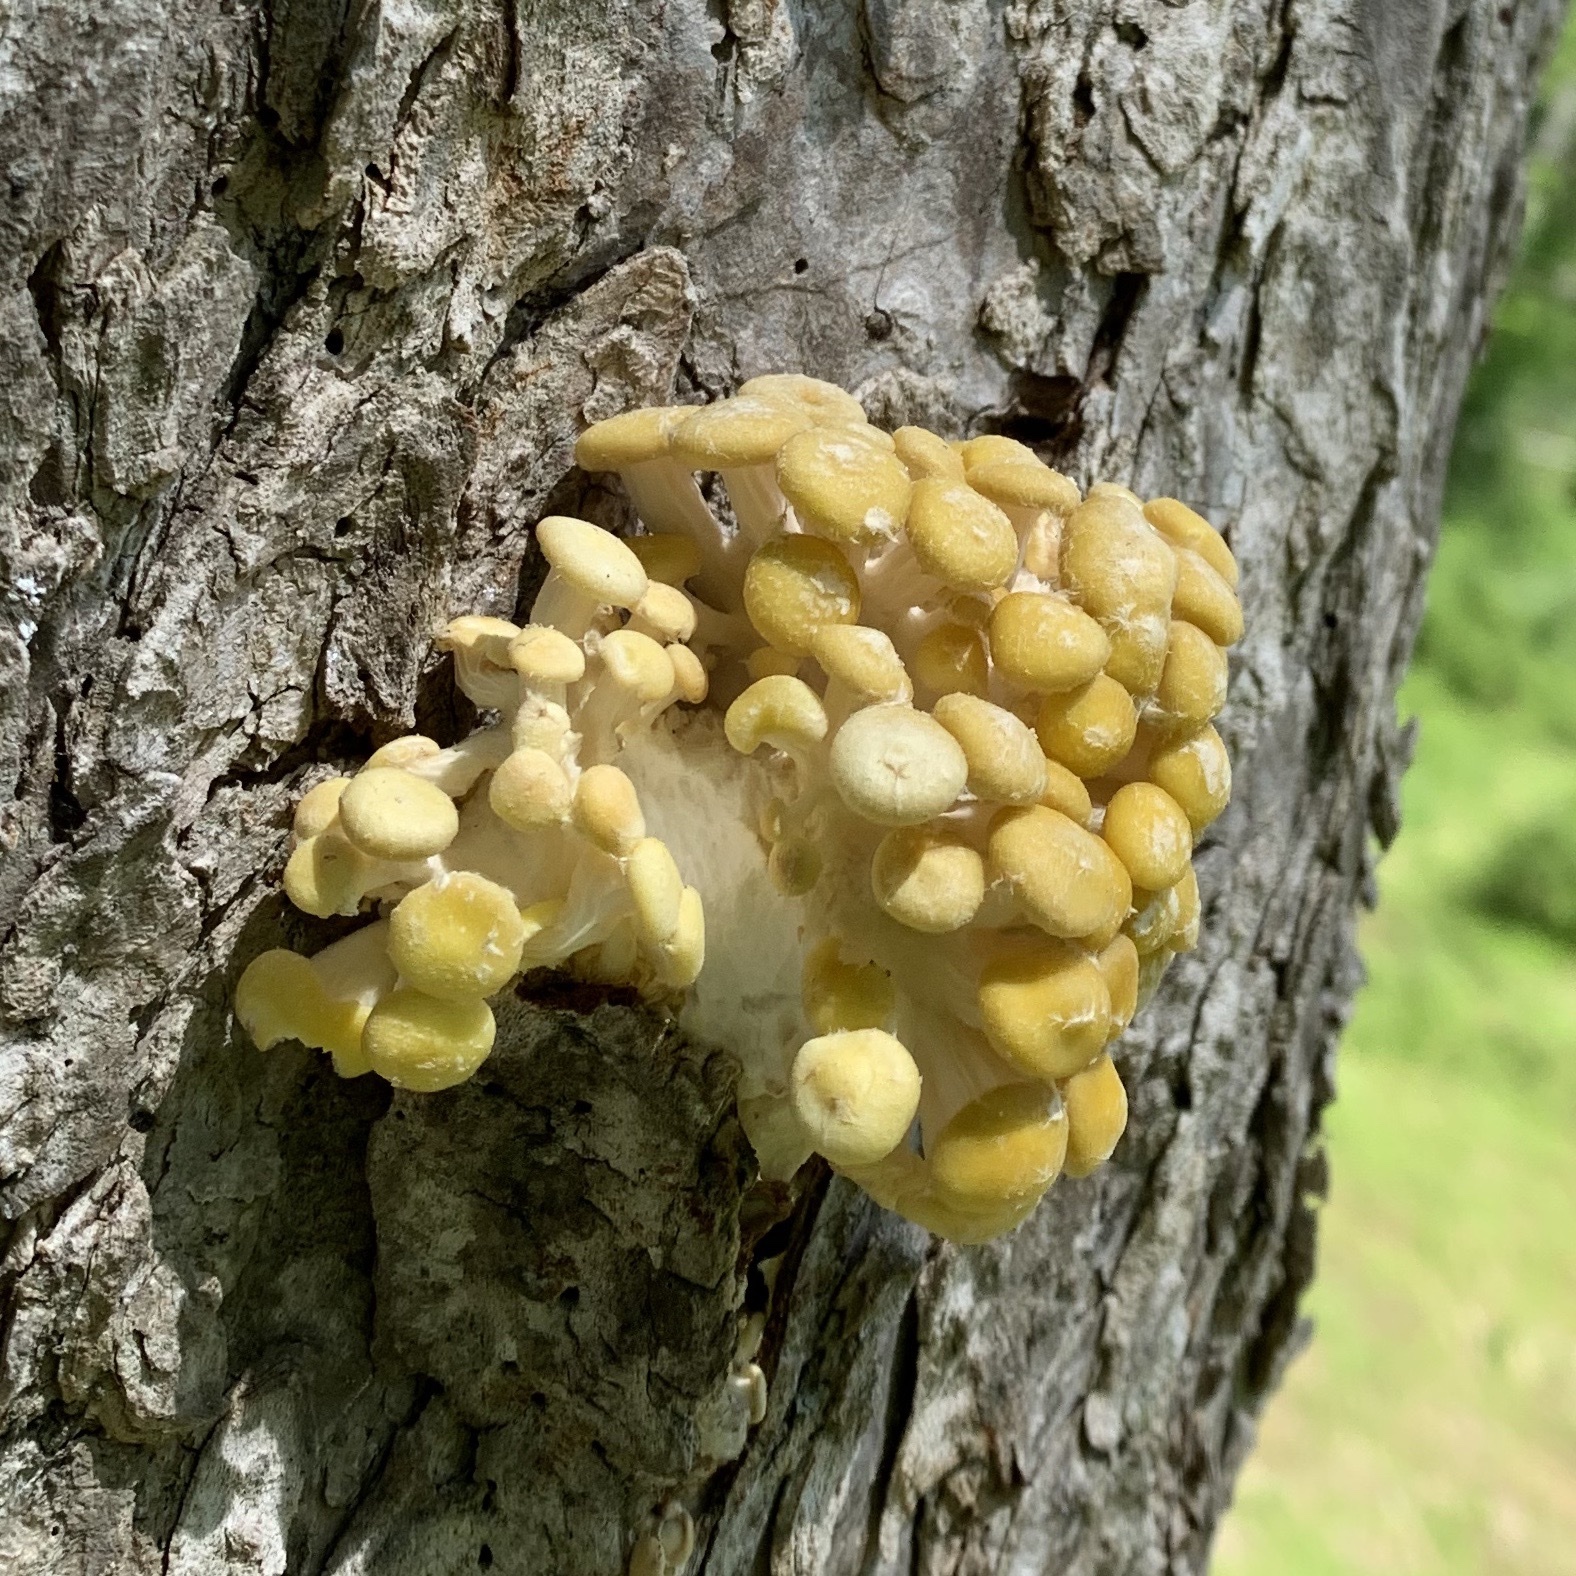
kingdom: Fungi
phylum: Basidiomycota
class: Agaricomycetes
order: Agaricales
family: Pleurotaceae
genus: Pleurotus
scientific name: Pleurotus citrinopileatus
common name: Golden oyster mushroom
